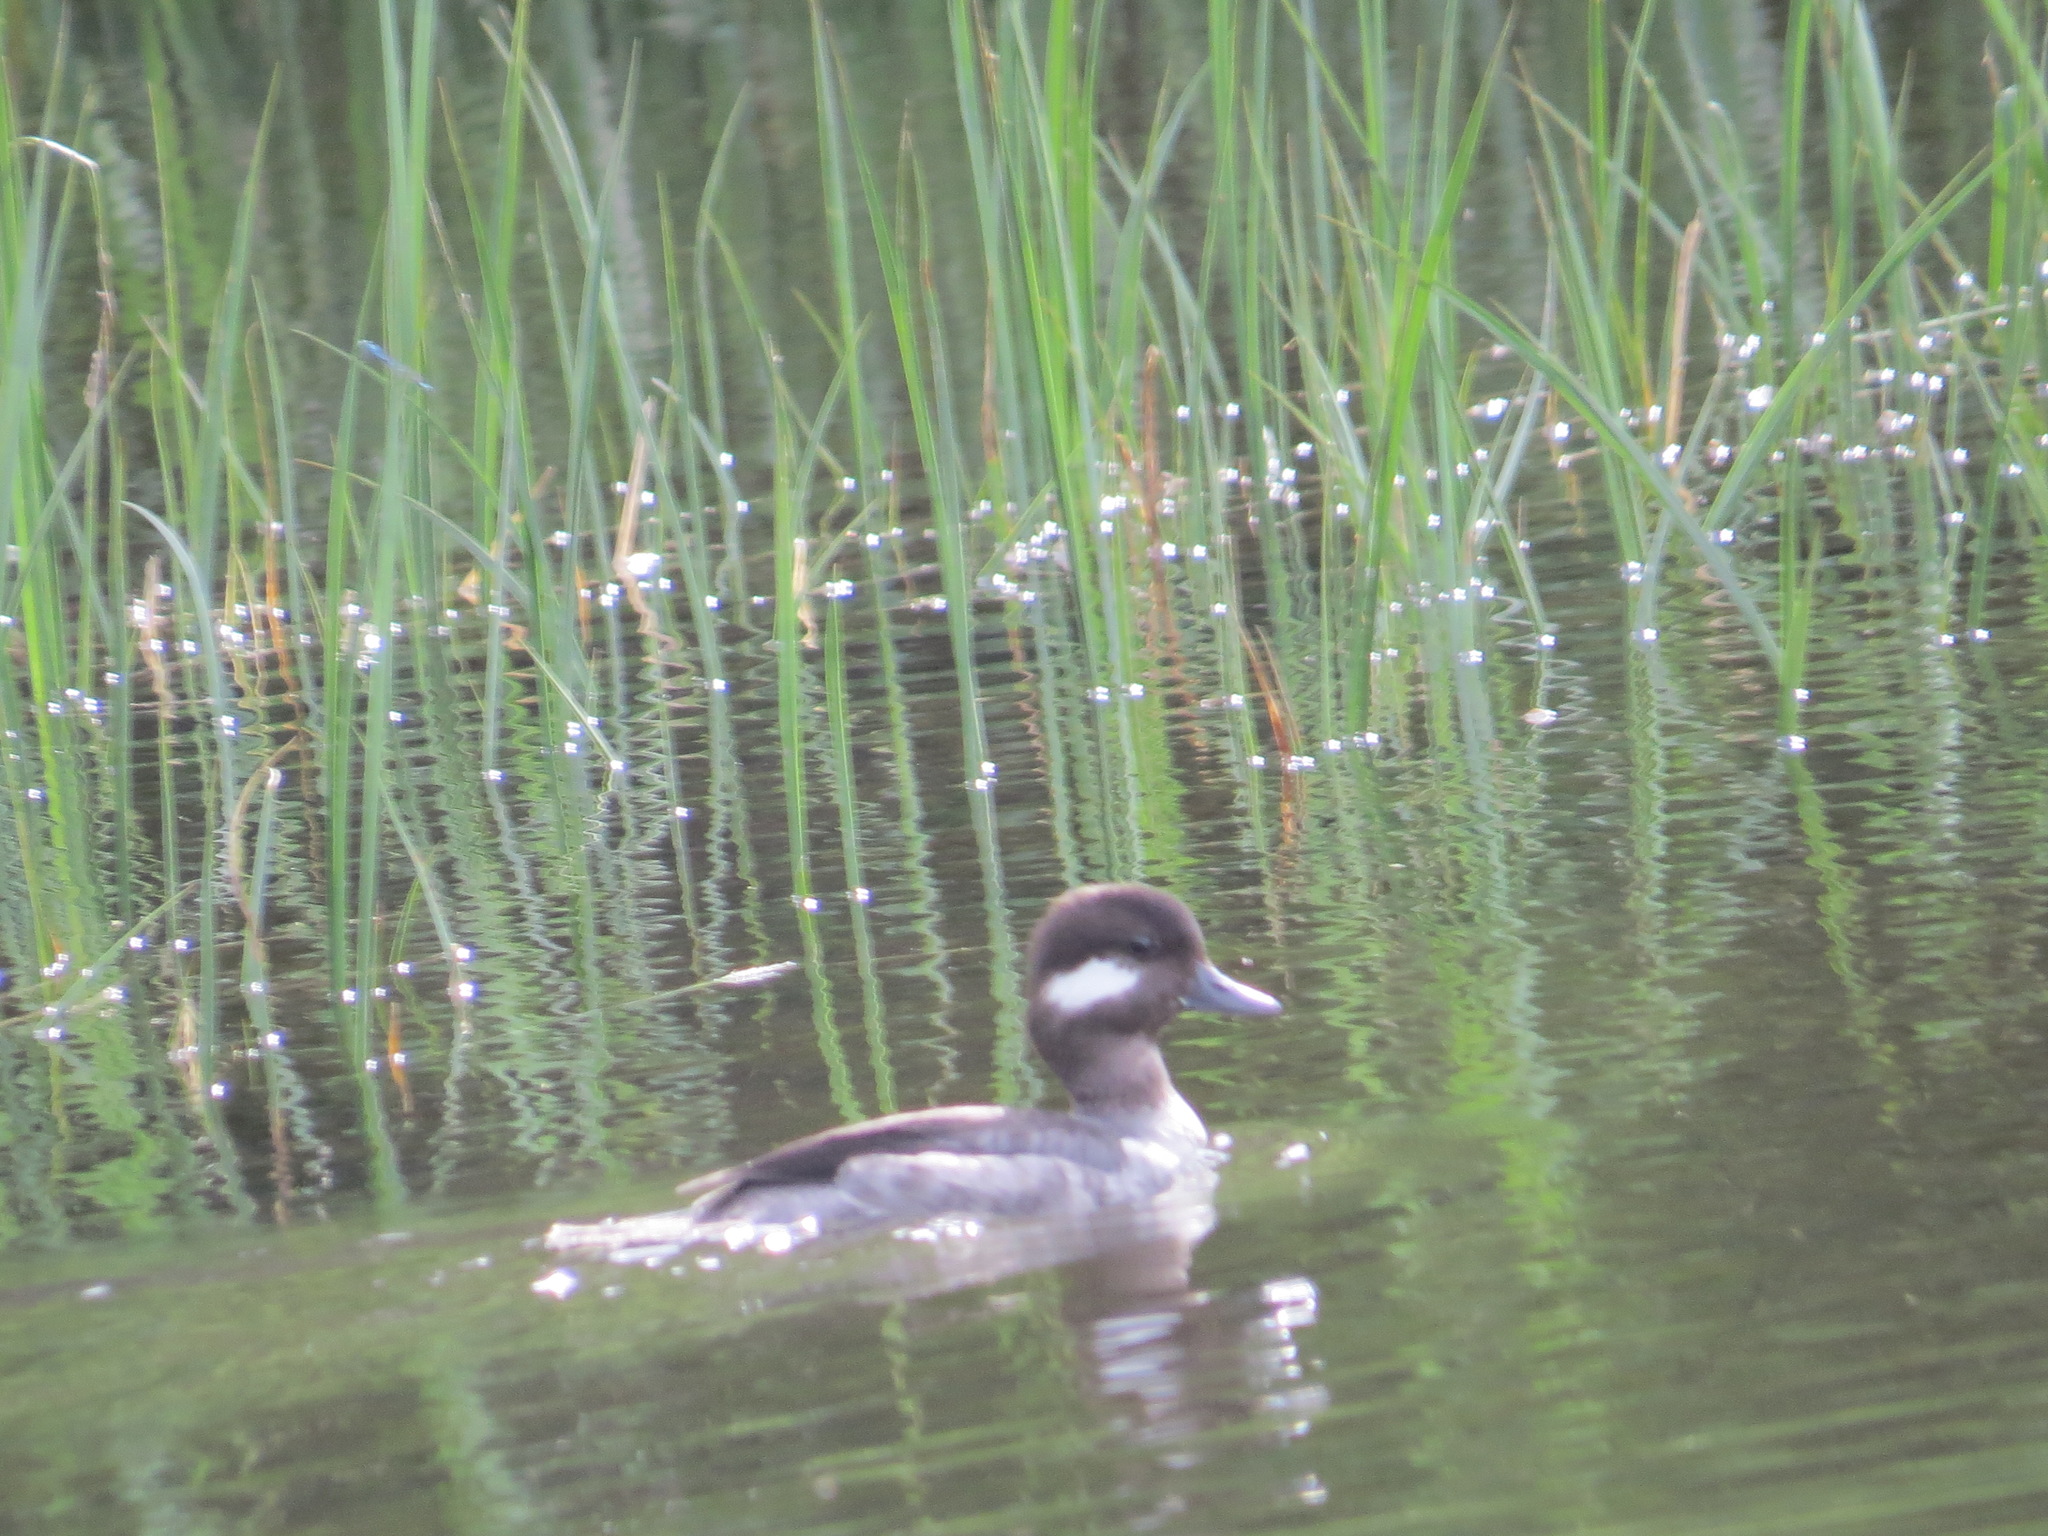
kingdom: Animalia
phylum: Chordata
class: Aves
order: Anseriformes
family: Anatidae
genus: Bucephala
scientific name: Bucephala albeola
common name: Bufflehead
